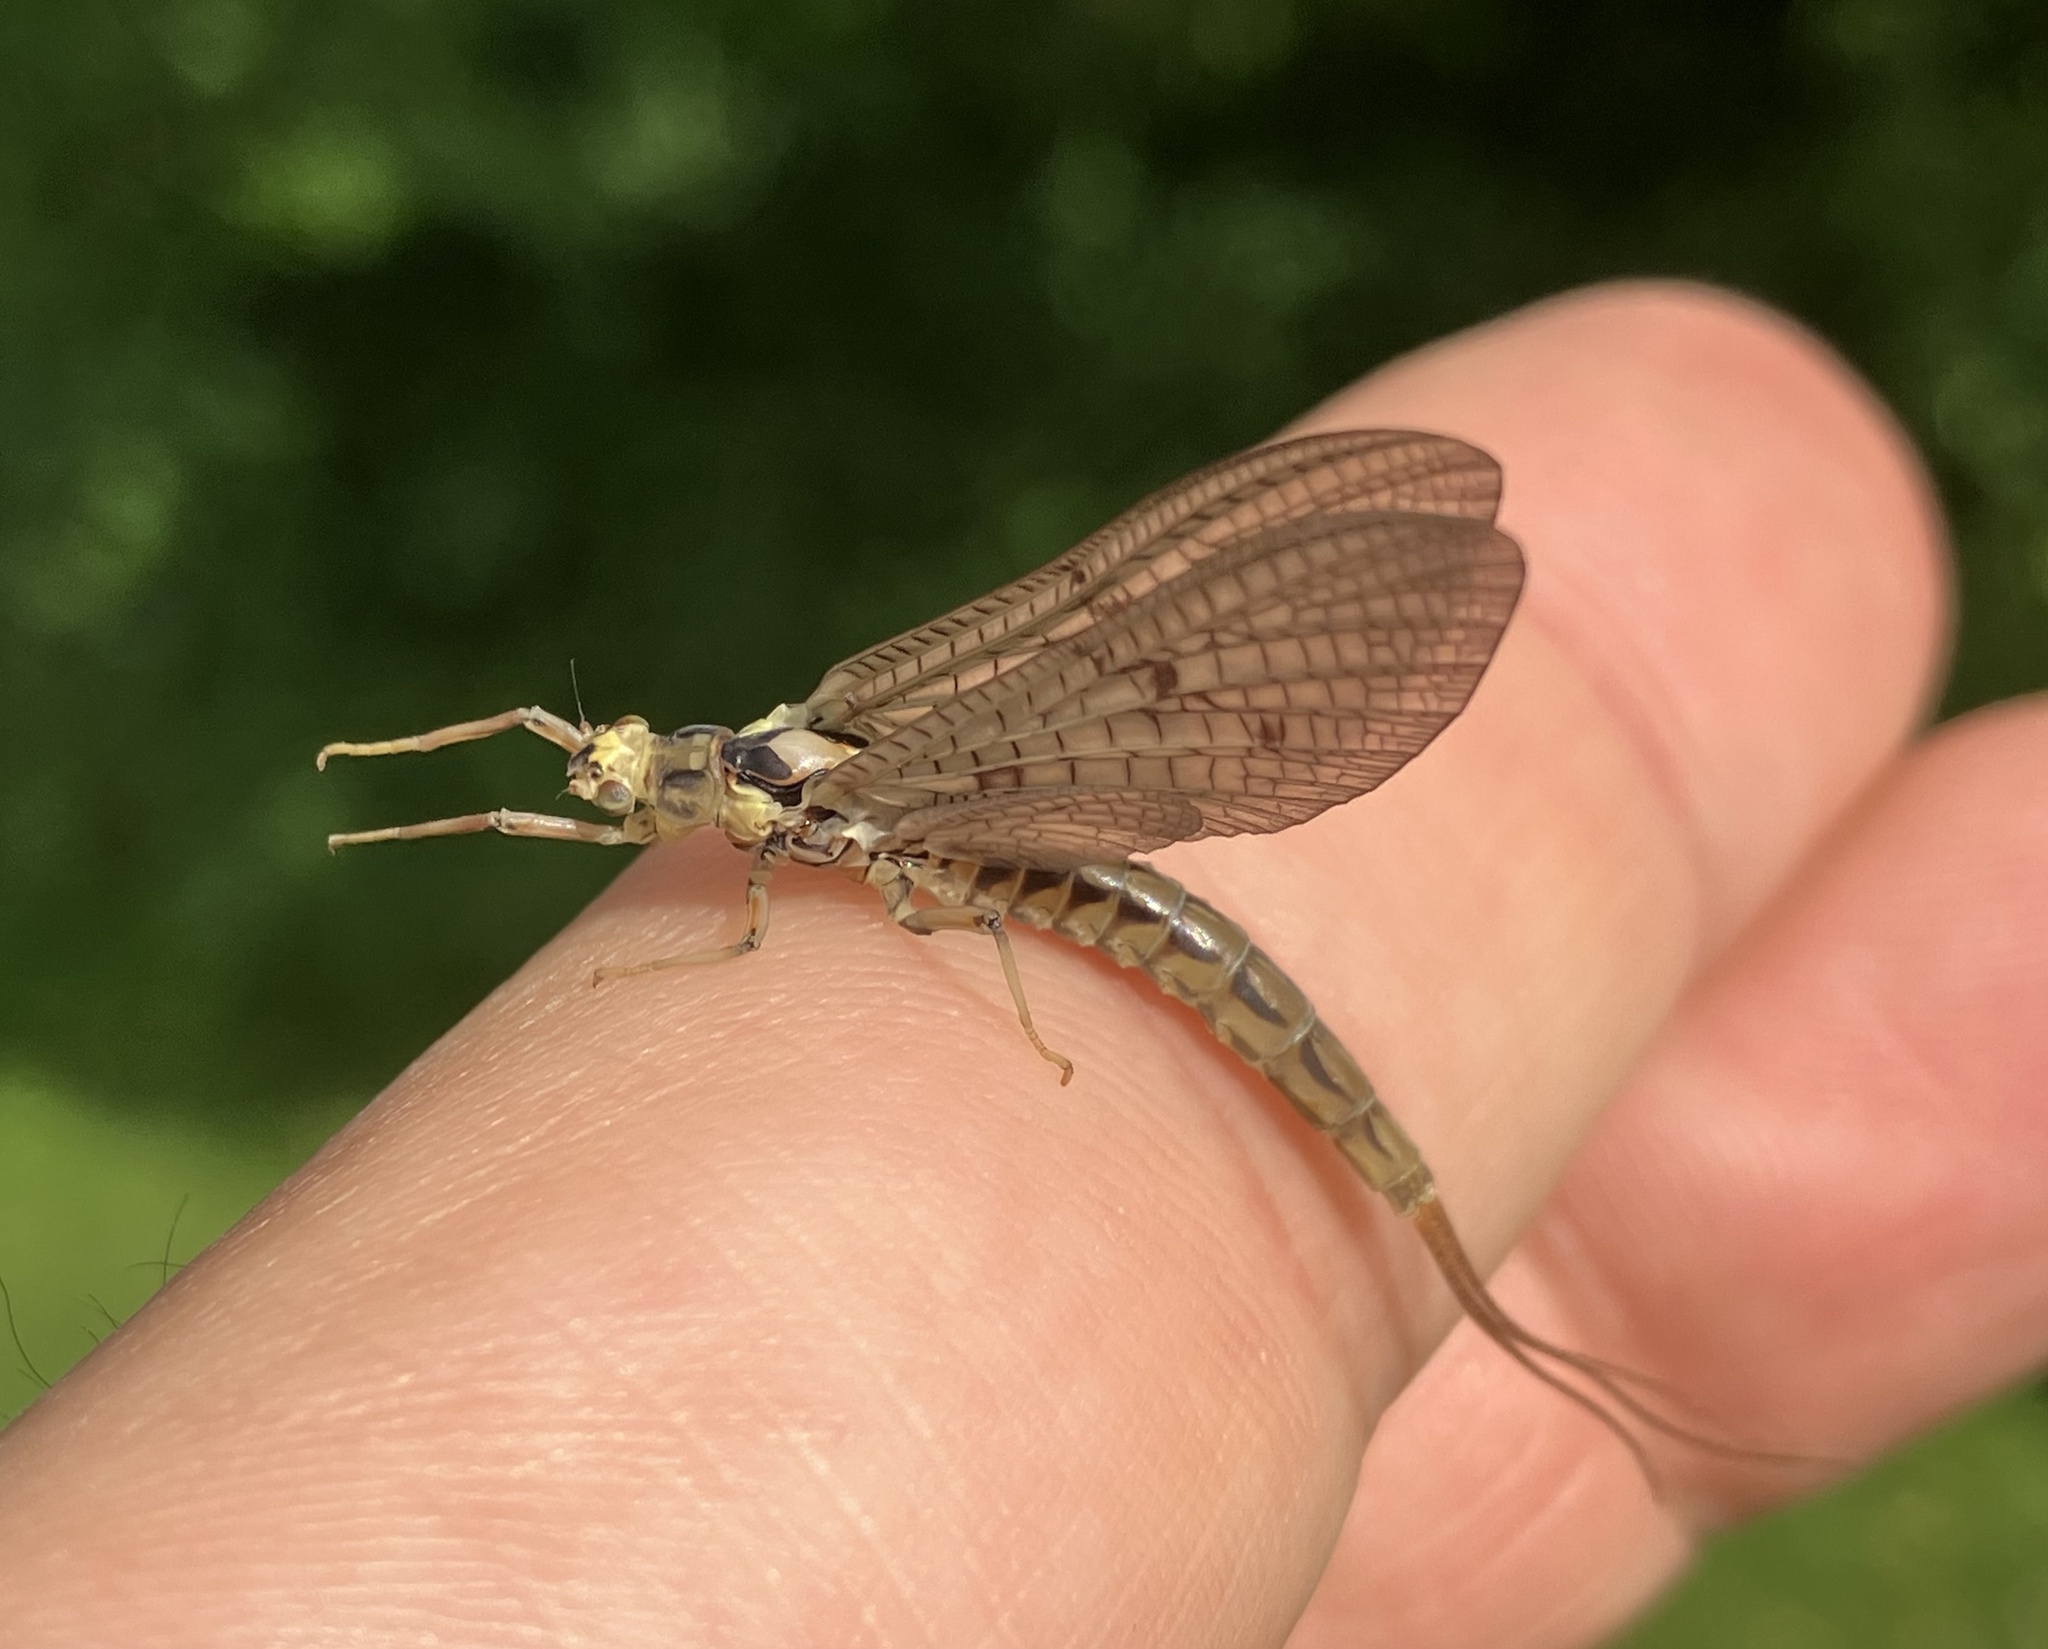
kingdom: Animalia
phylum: Arthropoda
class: Insecta
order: Ephemeroptera
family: Ephemeridae
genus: Ephemera
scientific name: Ephemera vulgata
